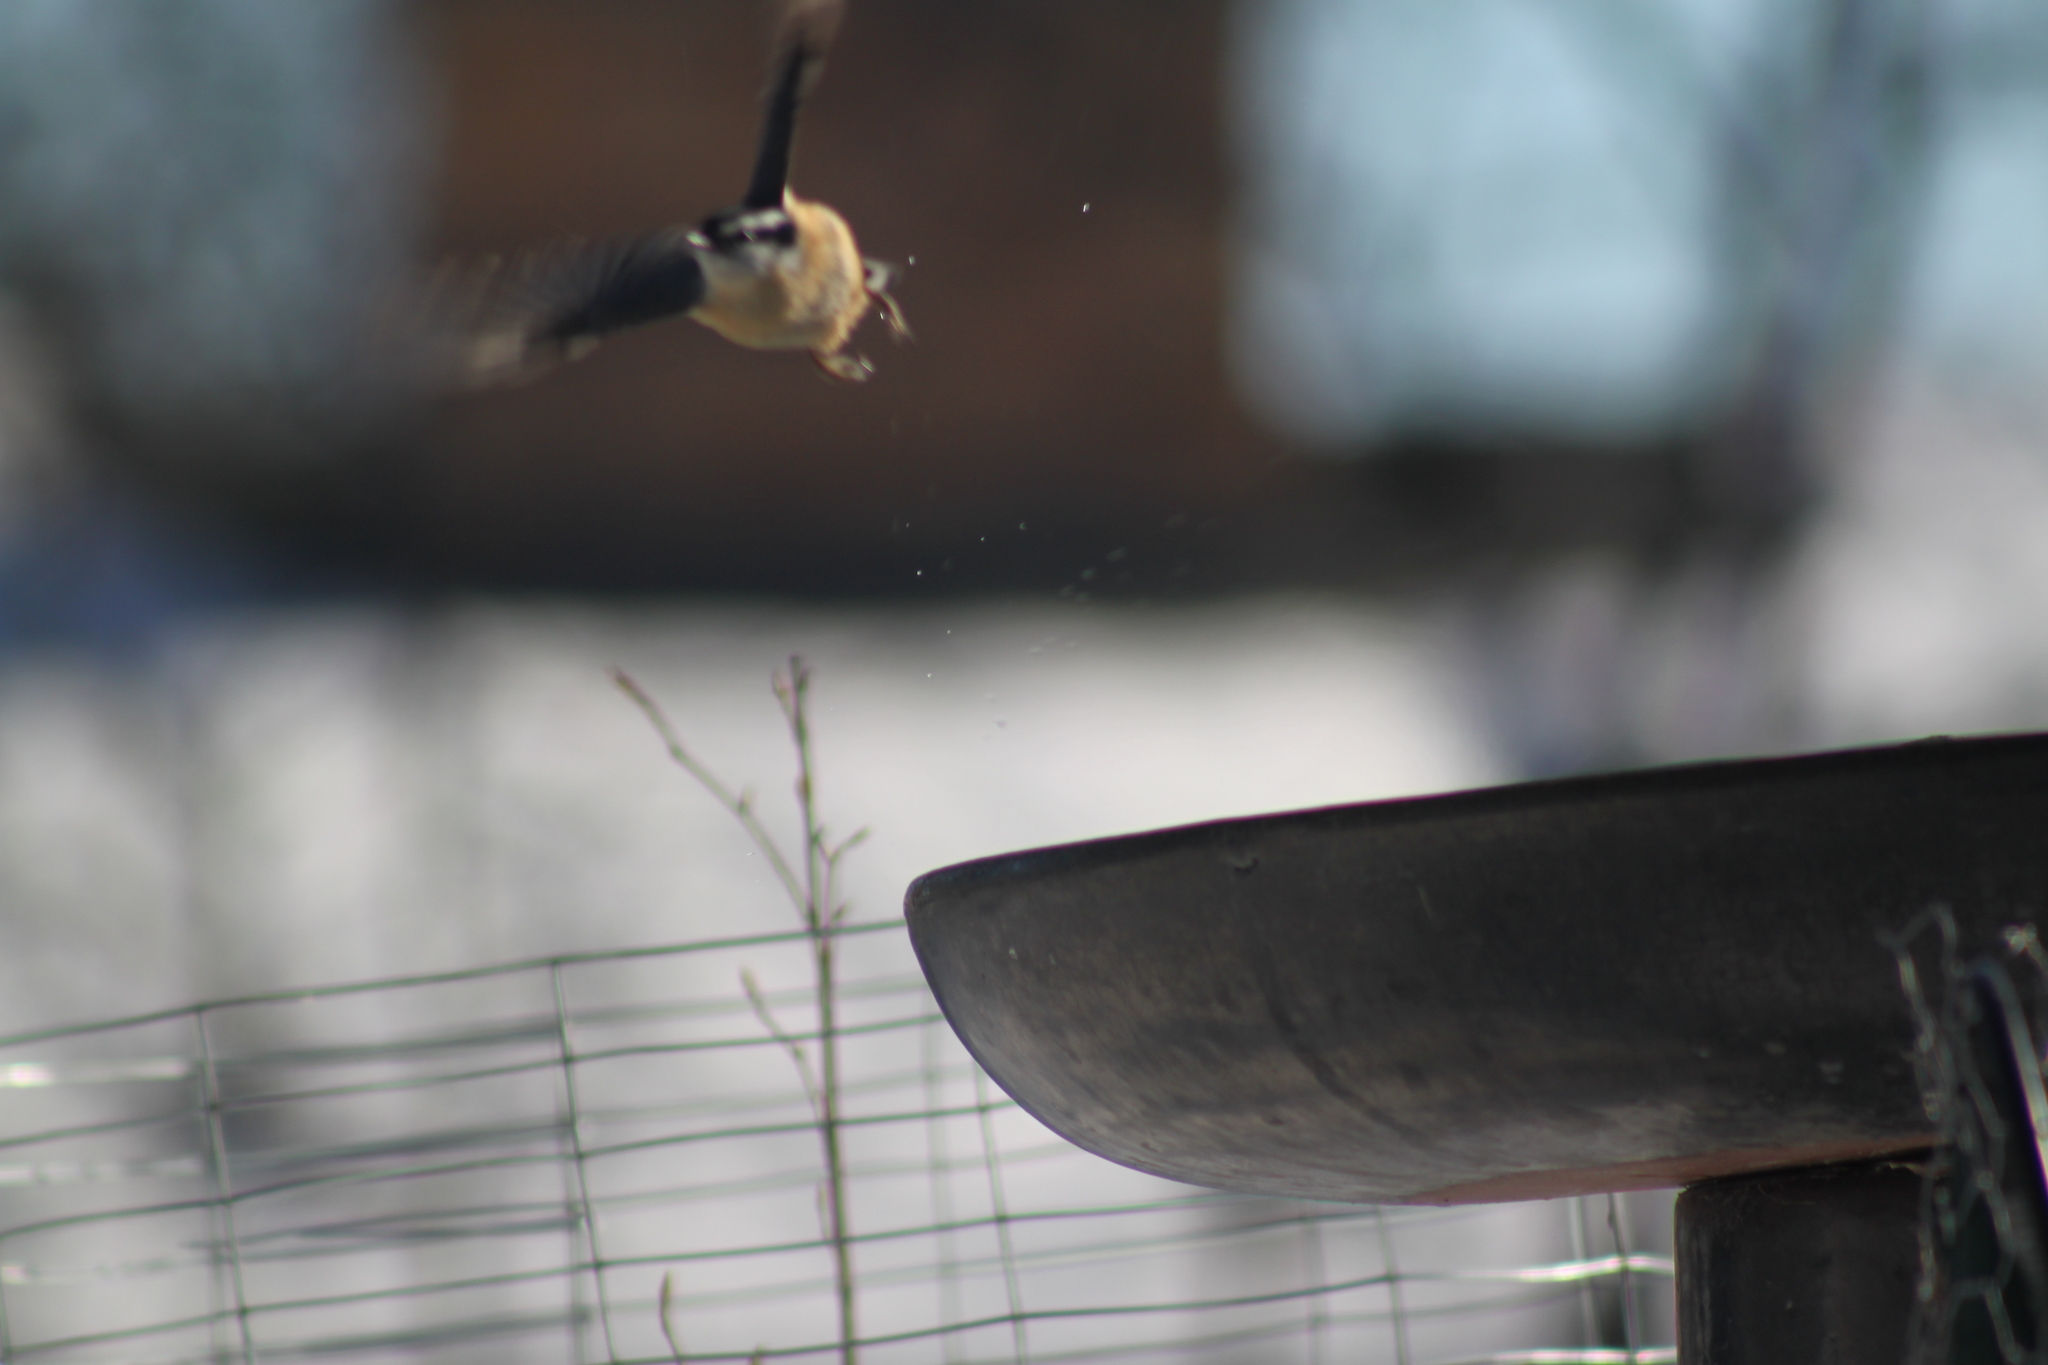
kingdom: Animalia
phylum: Chordata
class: Aves
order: Passeriformes
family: Sittidae
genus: Sitta
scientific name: Sitta canadensis
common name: Red-breasted nuthatch
